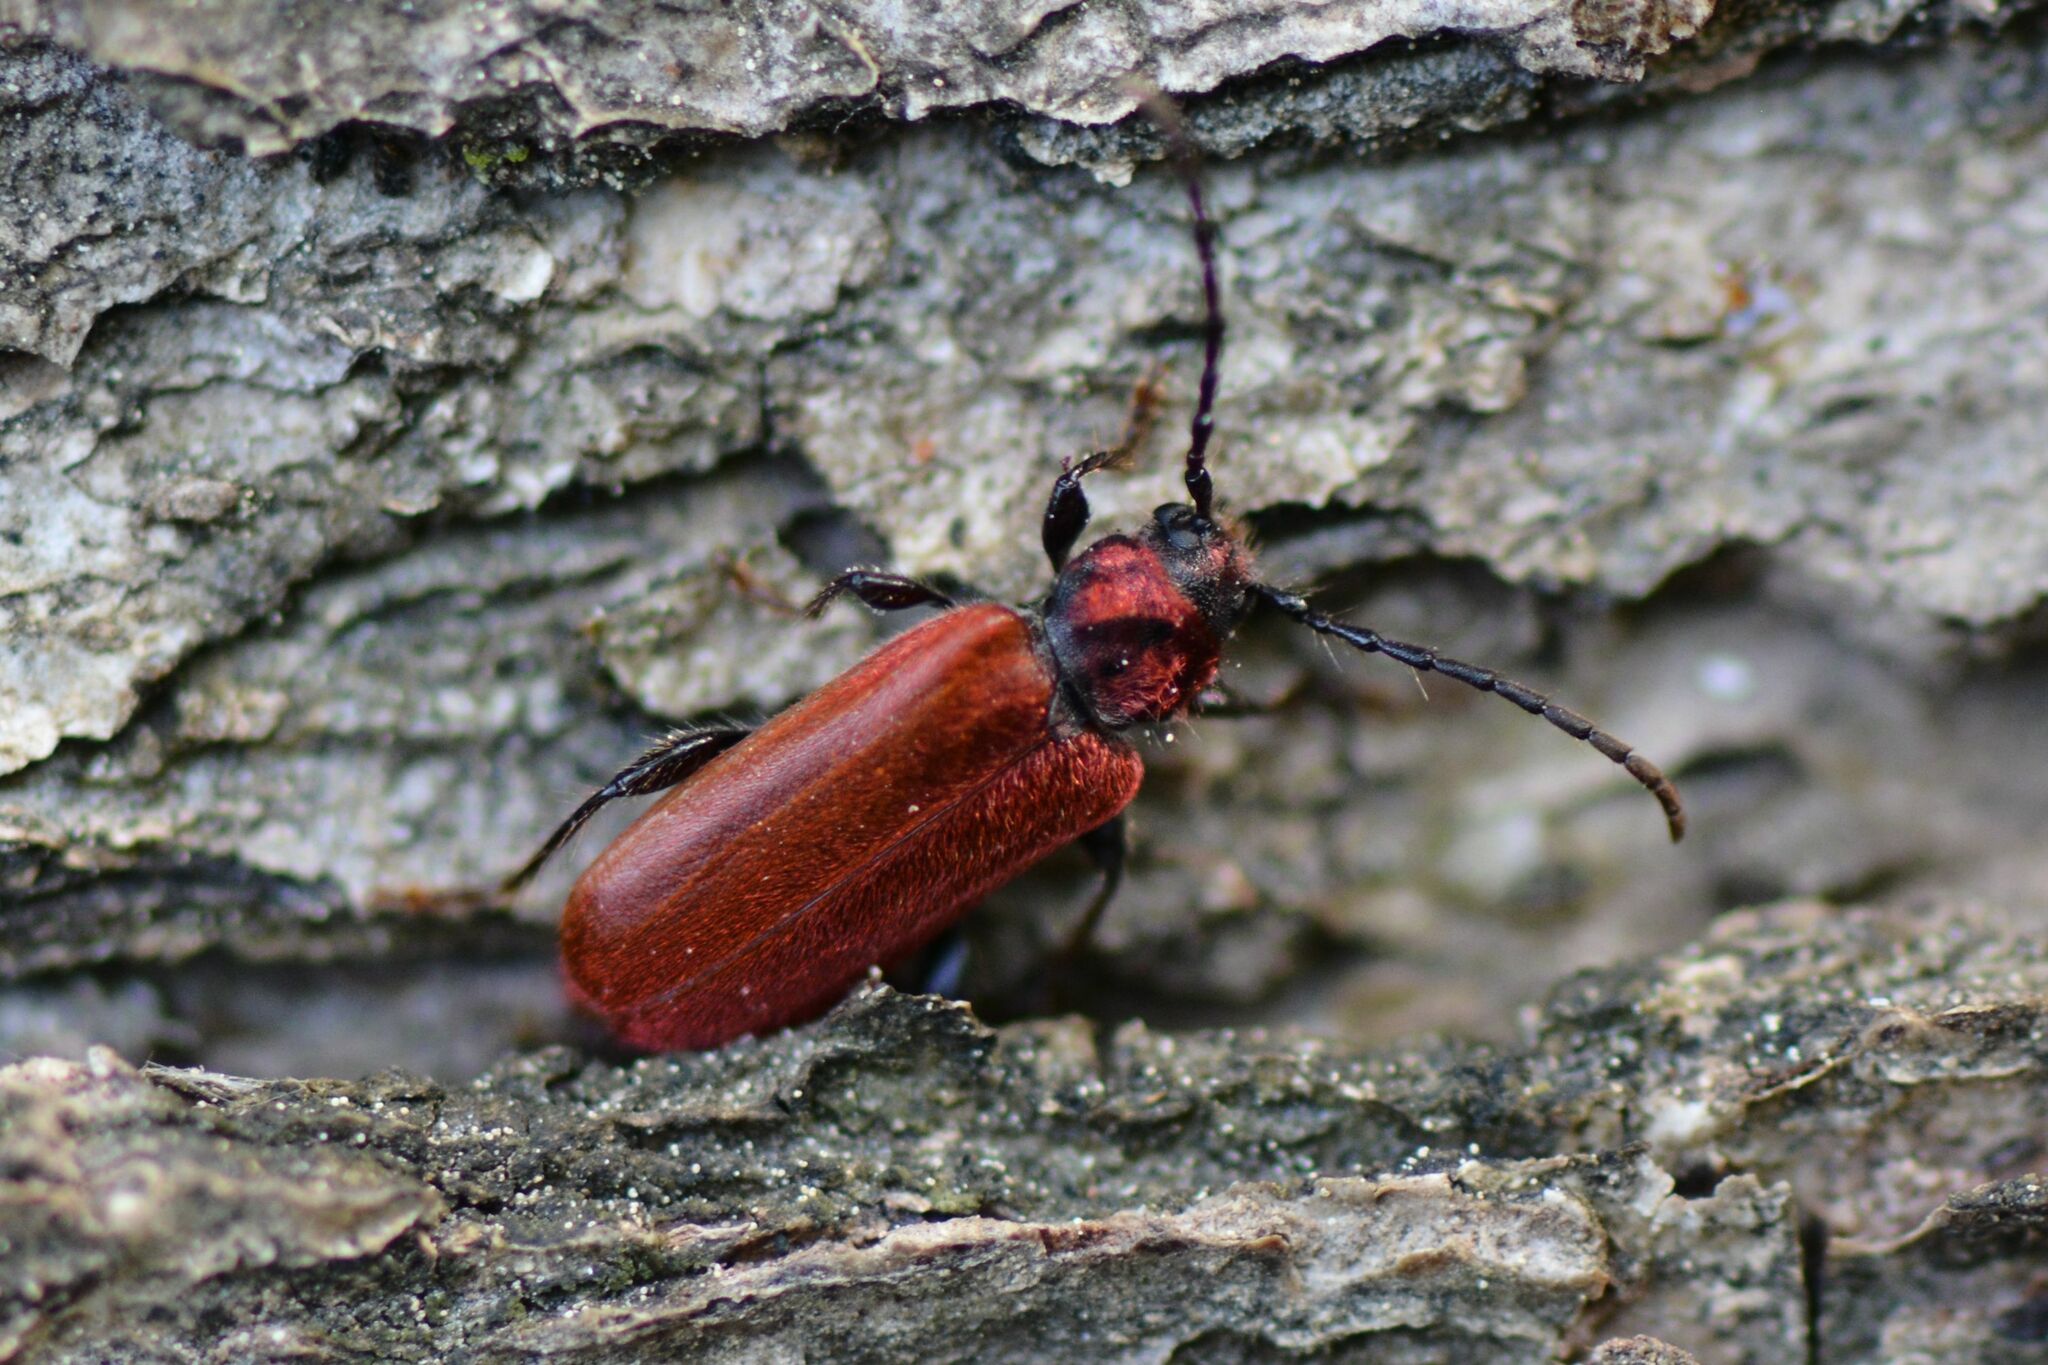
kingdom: Animalia
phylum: Arthropoda
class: Insecta
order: Coleoptera
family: Cerambycidae
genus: Pyrrhidium
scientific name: Pyrrhidium sanguineum
